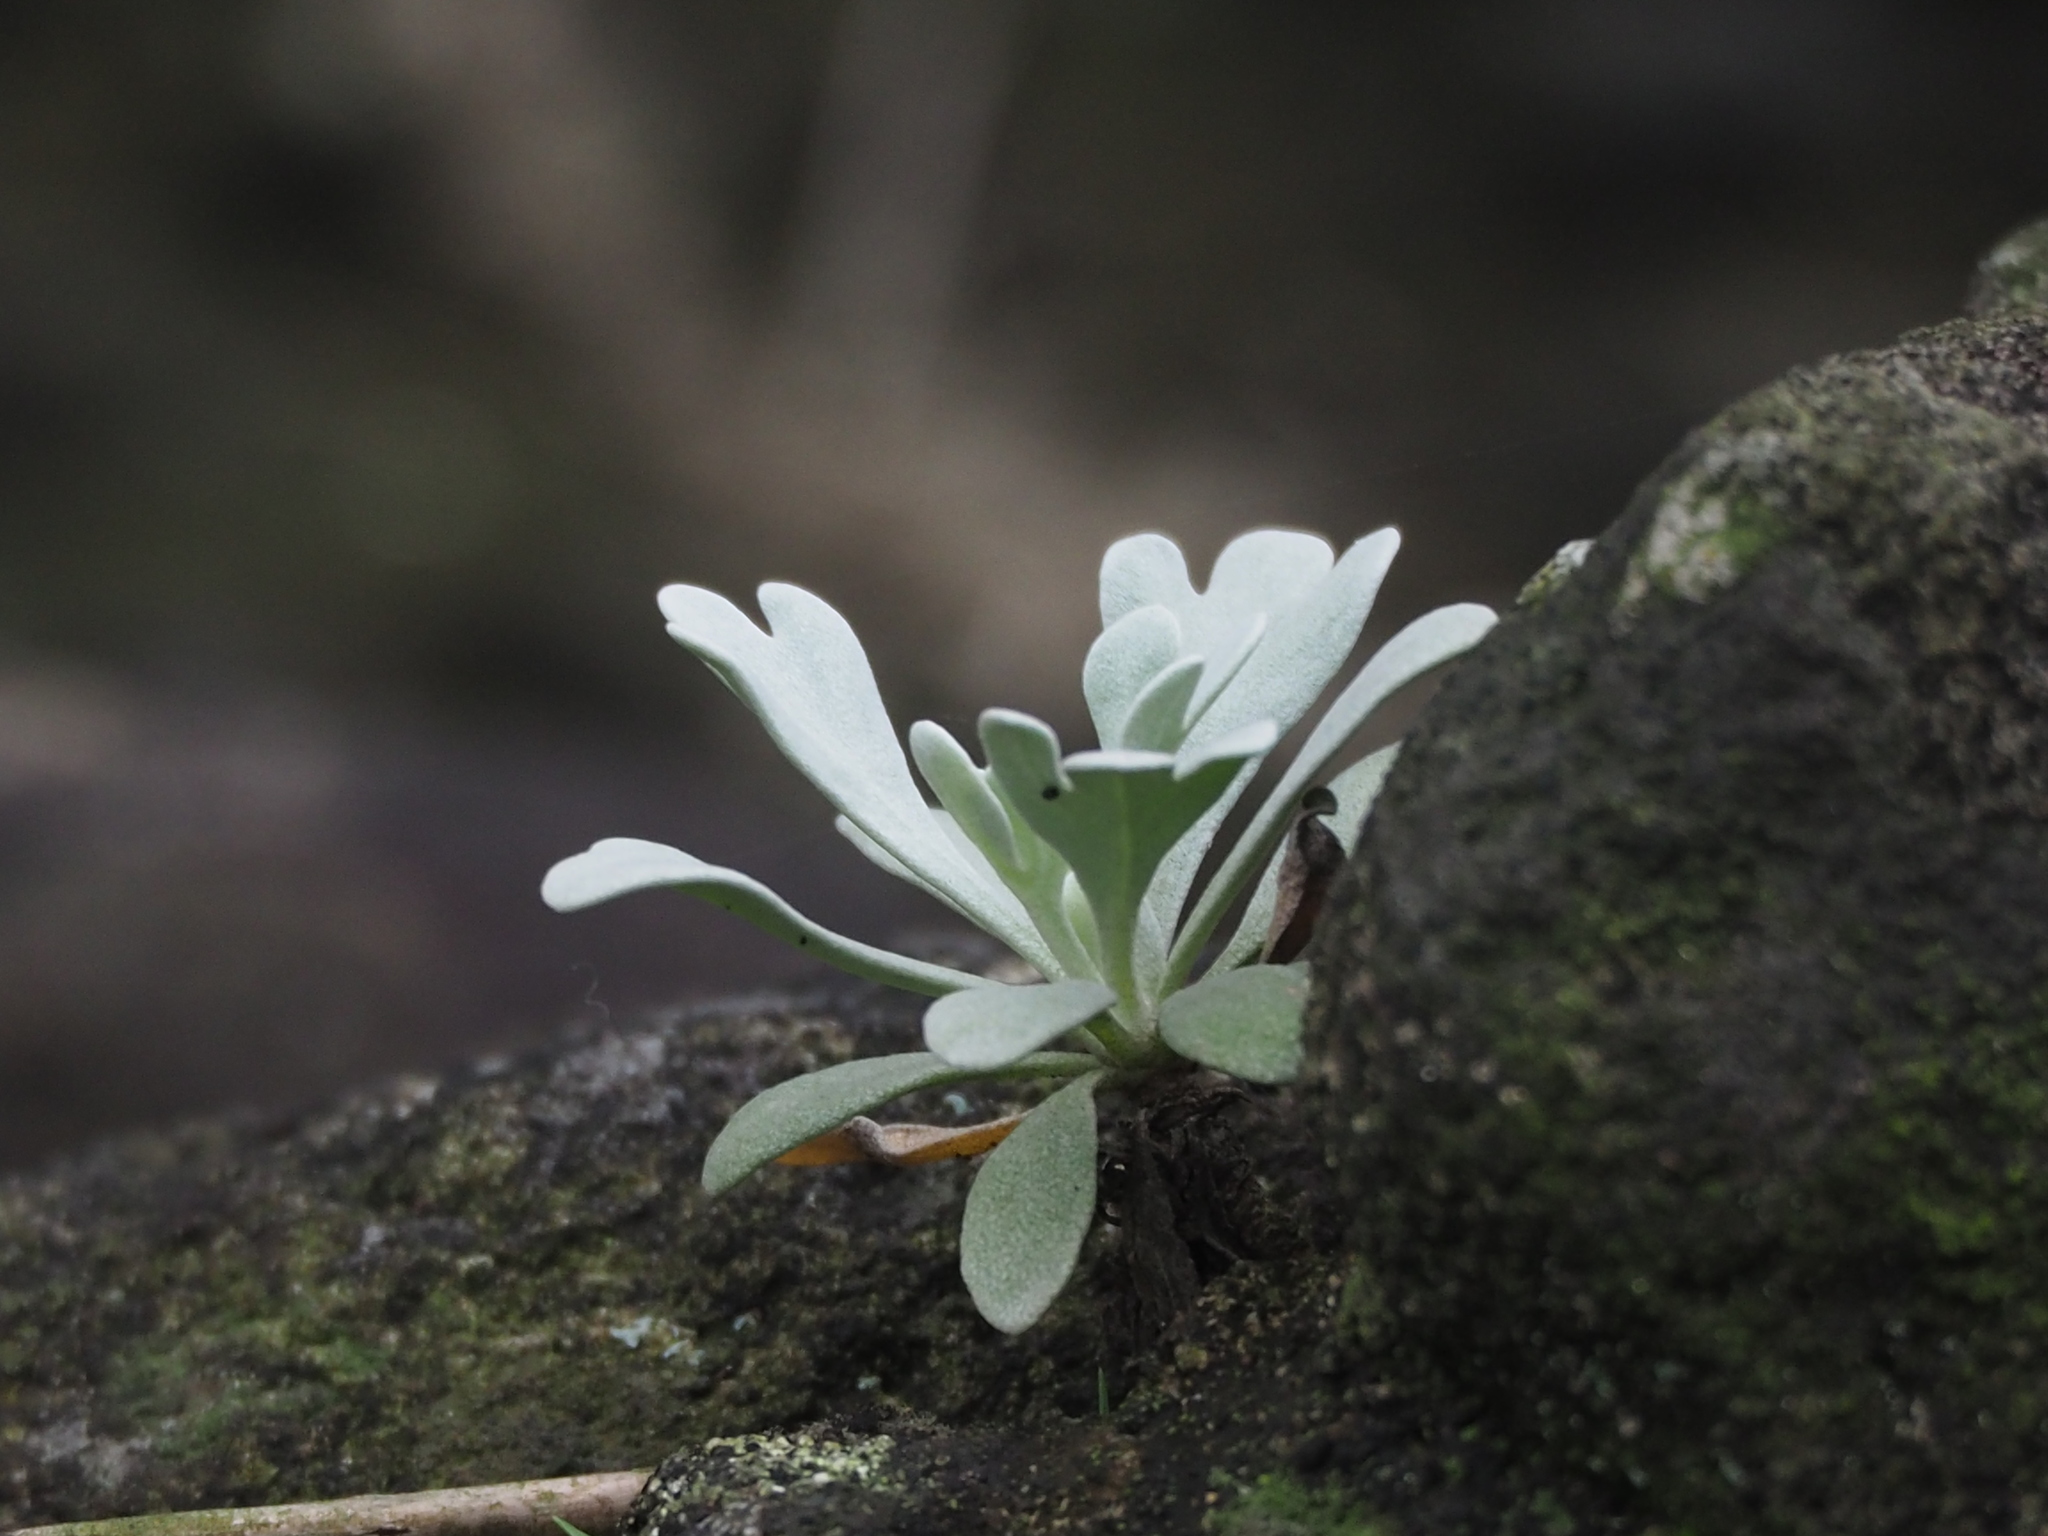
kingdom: Plantae
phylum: Tracheophyta
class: Magnoliopsida
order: Asterales
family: Asteraceae
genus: Crossostephium
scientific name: Crossostephium chinense
